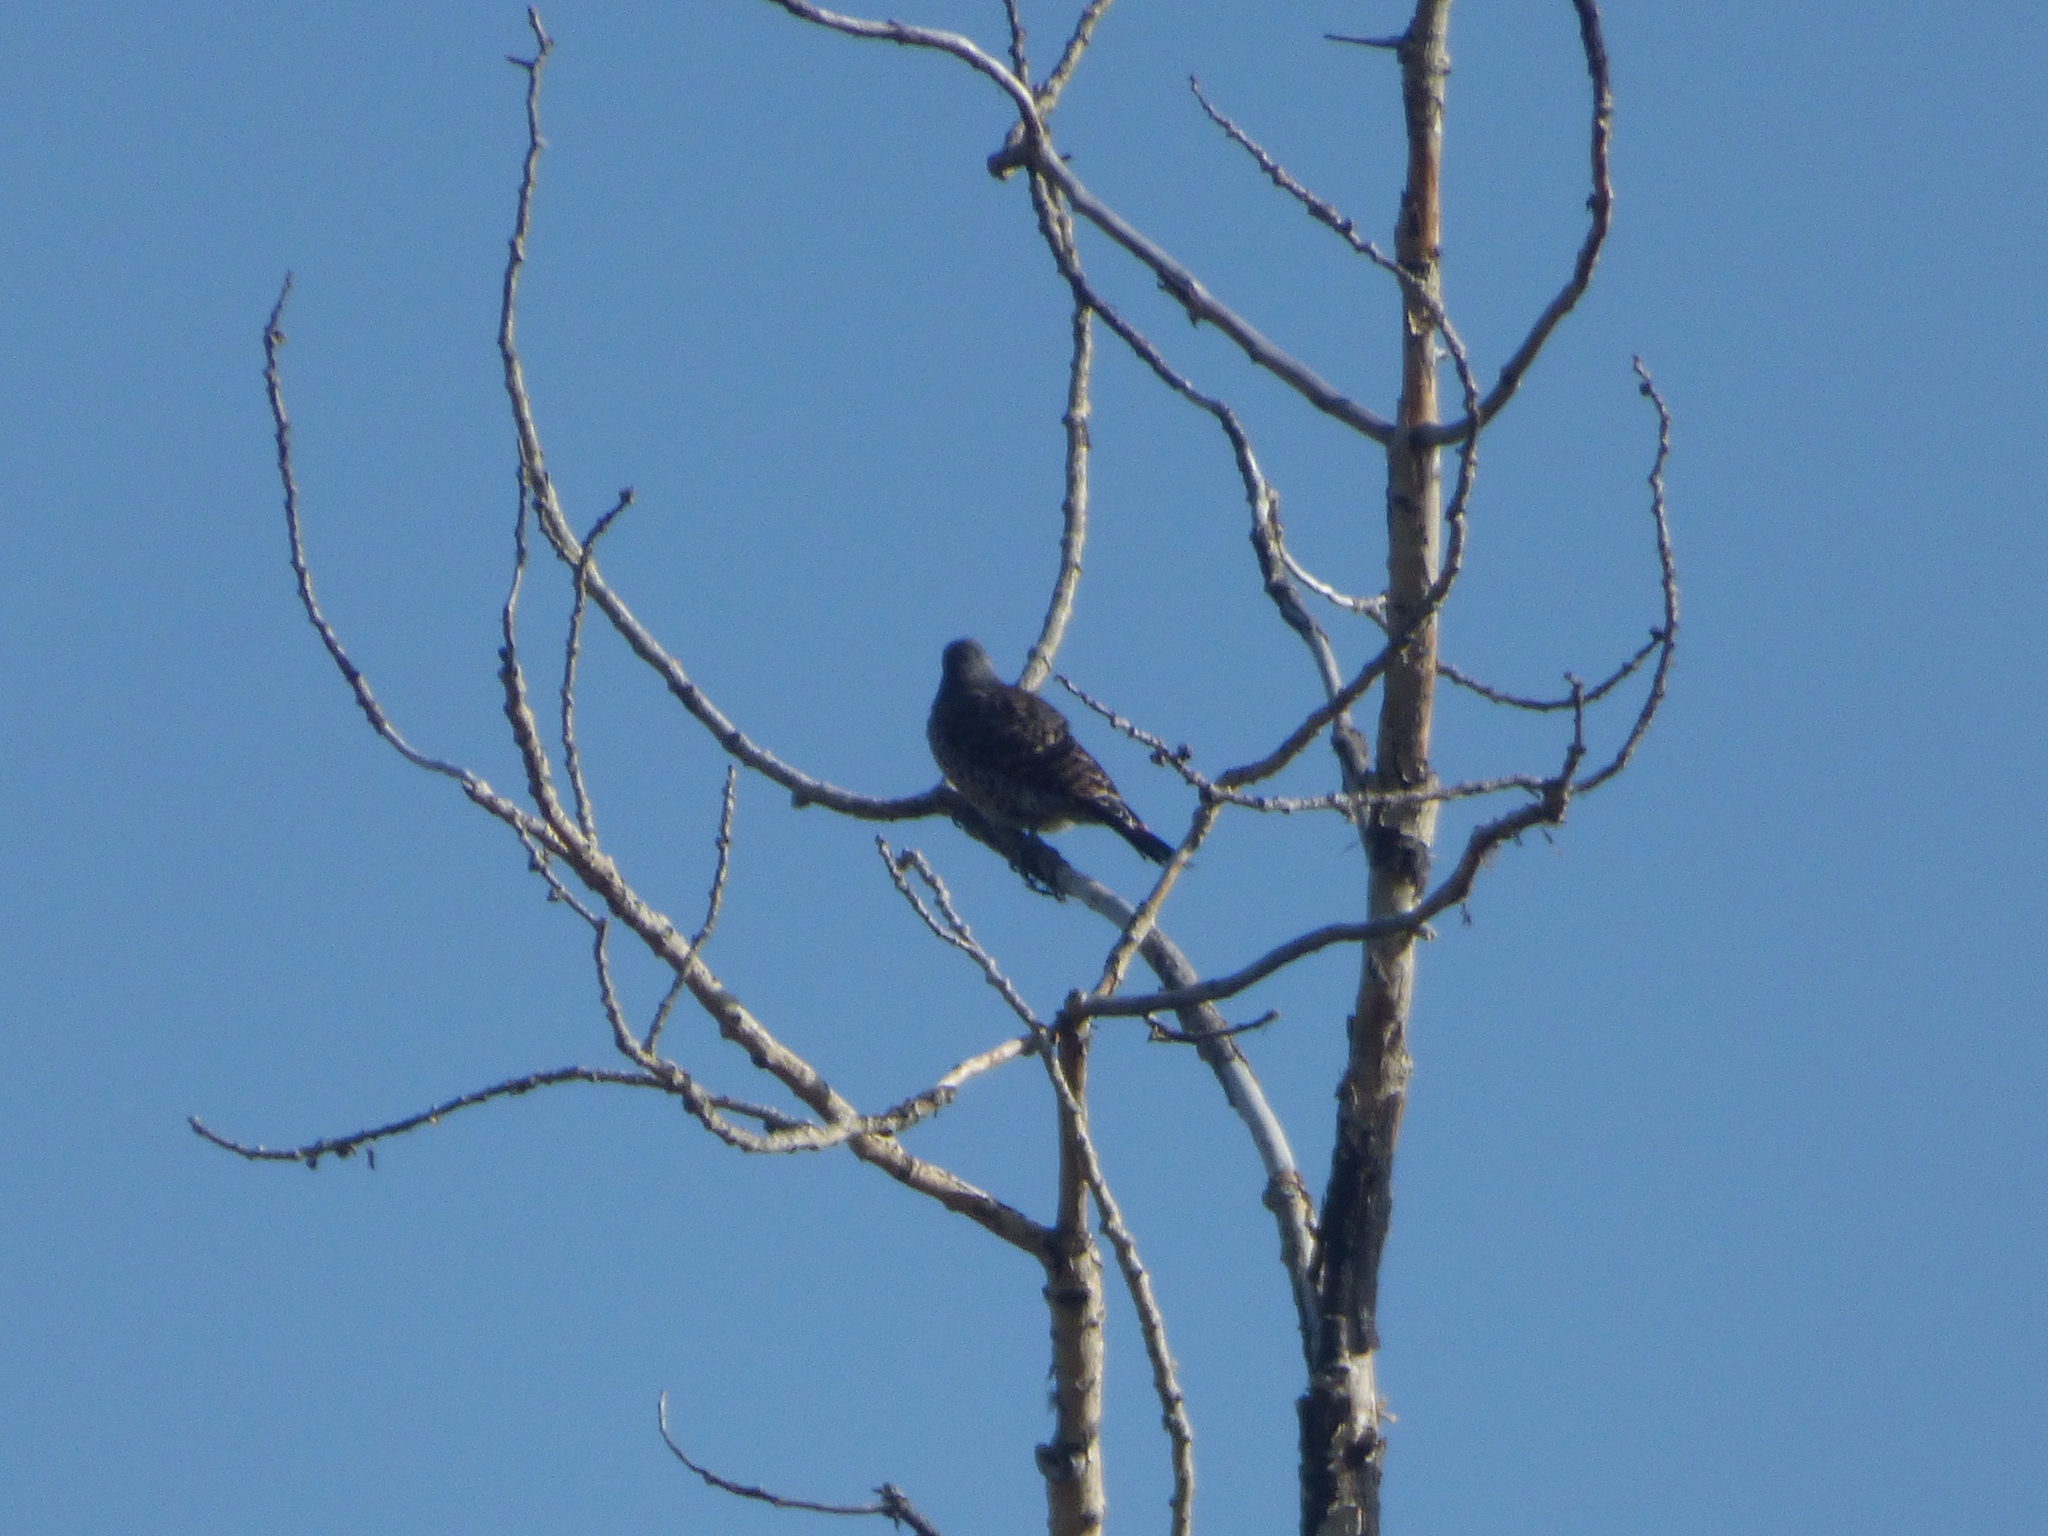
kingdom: Animalia
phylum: Chordata
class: Aves
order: Piciformes
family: Picidae
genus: Colaptes
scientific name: Colaptes auratus
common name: Northern flicker
